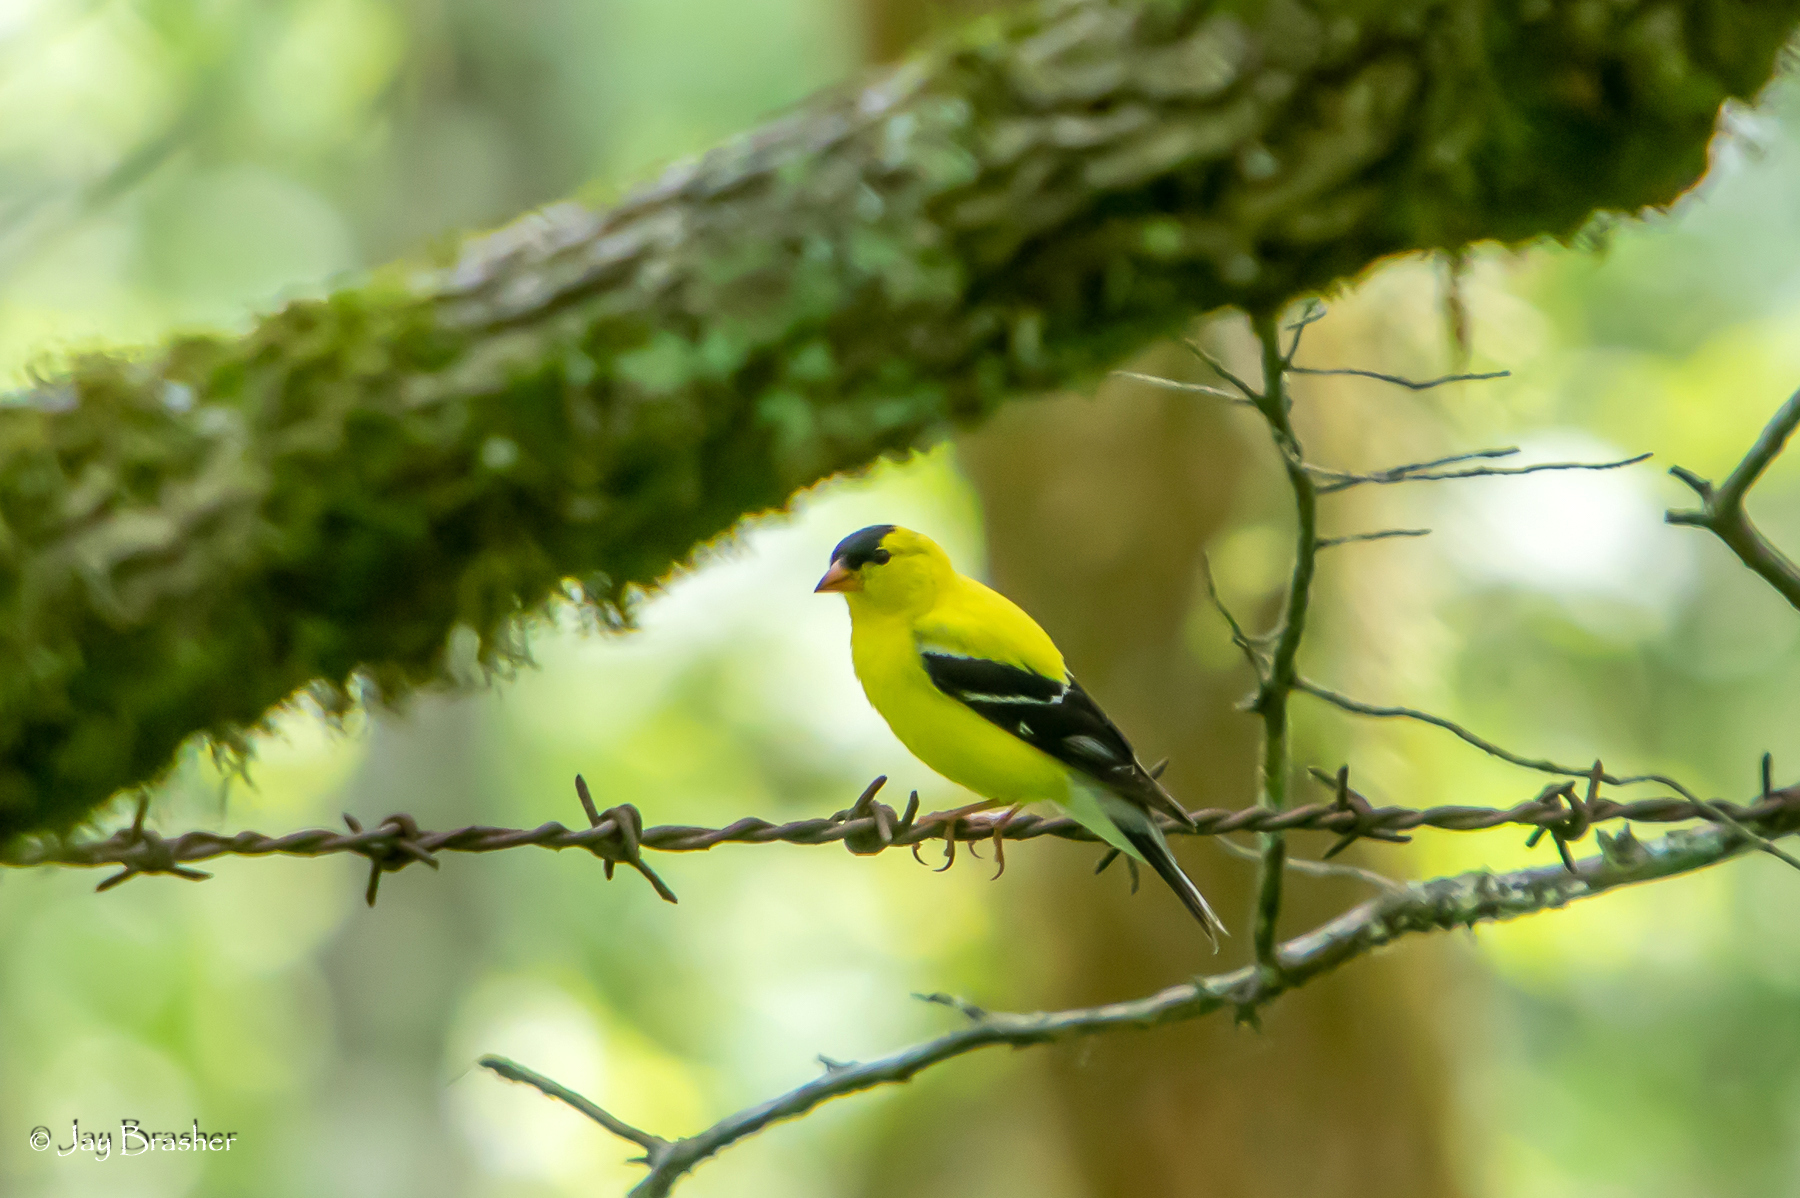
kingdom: Animalia
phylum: Chordata
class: Aves
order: Passeriformes
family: Fringillidae
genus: Spinus
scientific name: Spinus tristis
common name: American goldfinch
